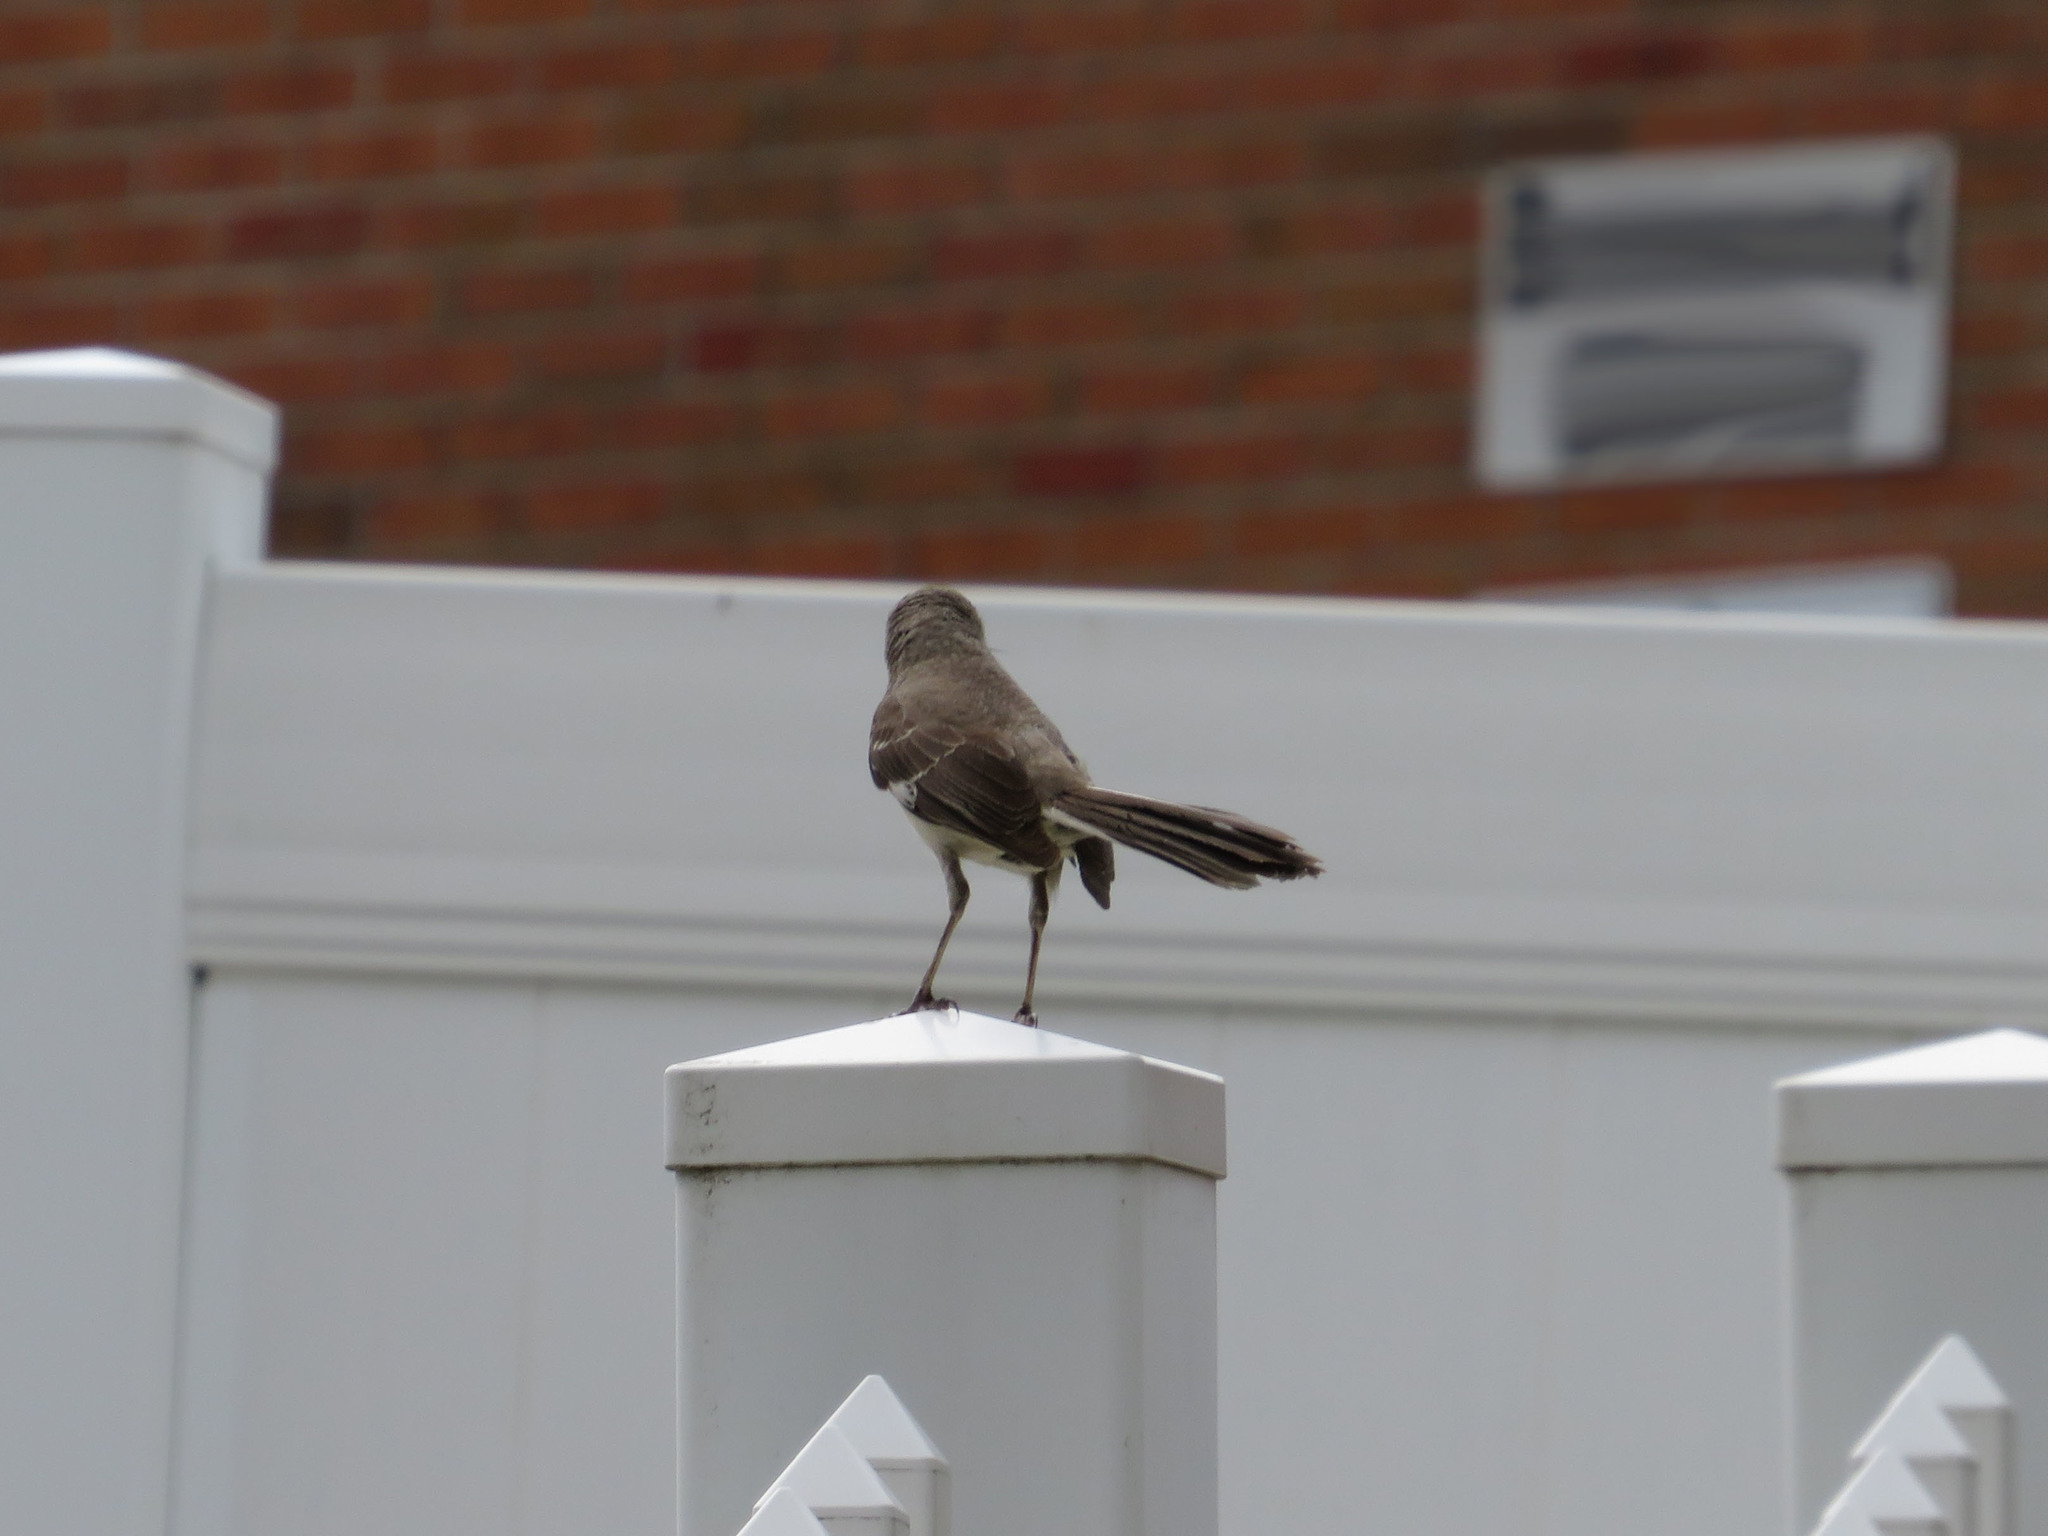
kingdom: Animalia
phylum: Chordata
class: Aves
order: Passeriformes
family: Mimidae
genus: Mimus
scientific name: Mimus polyglottos
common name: Northern mockingbird
